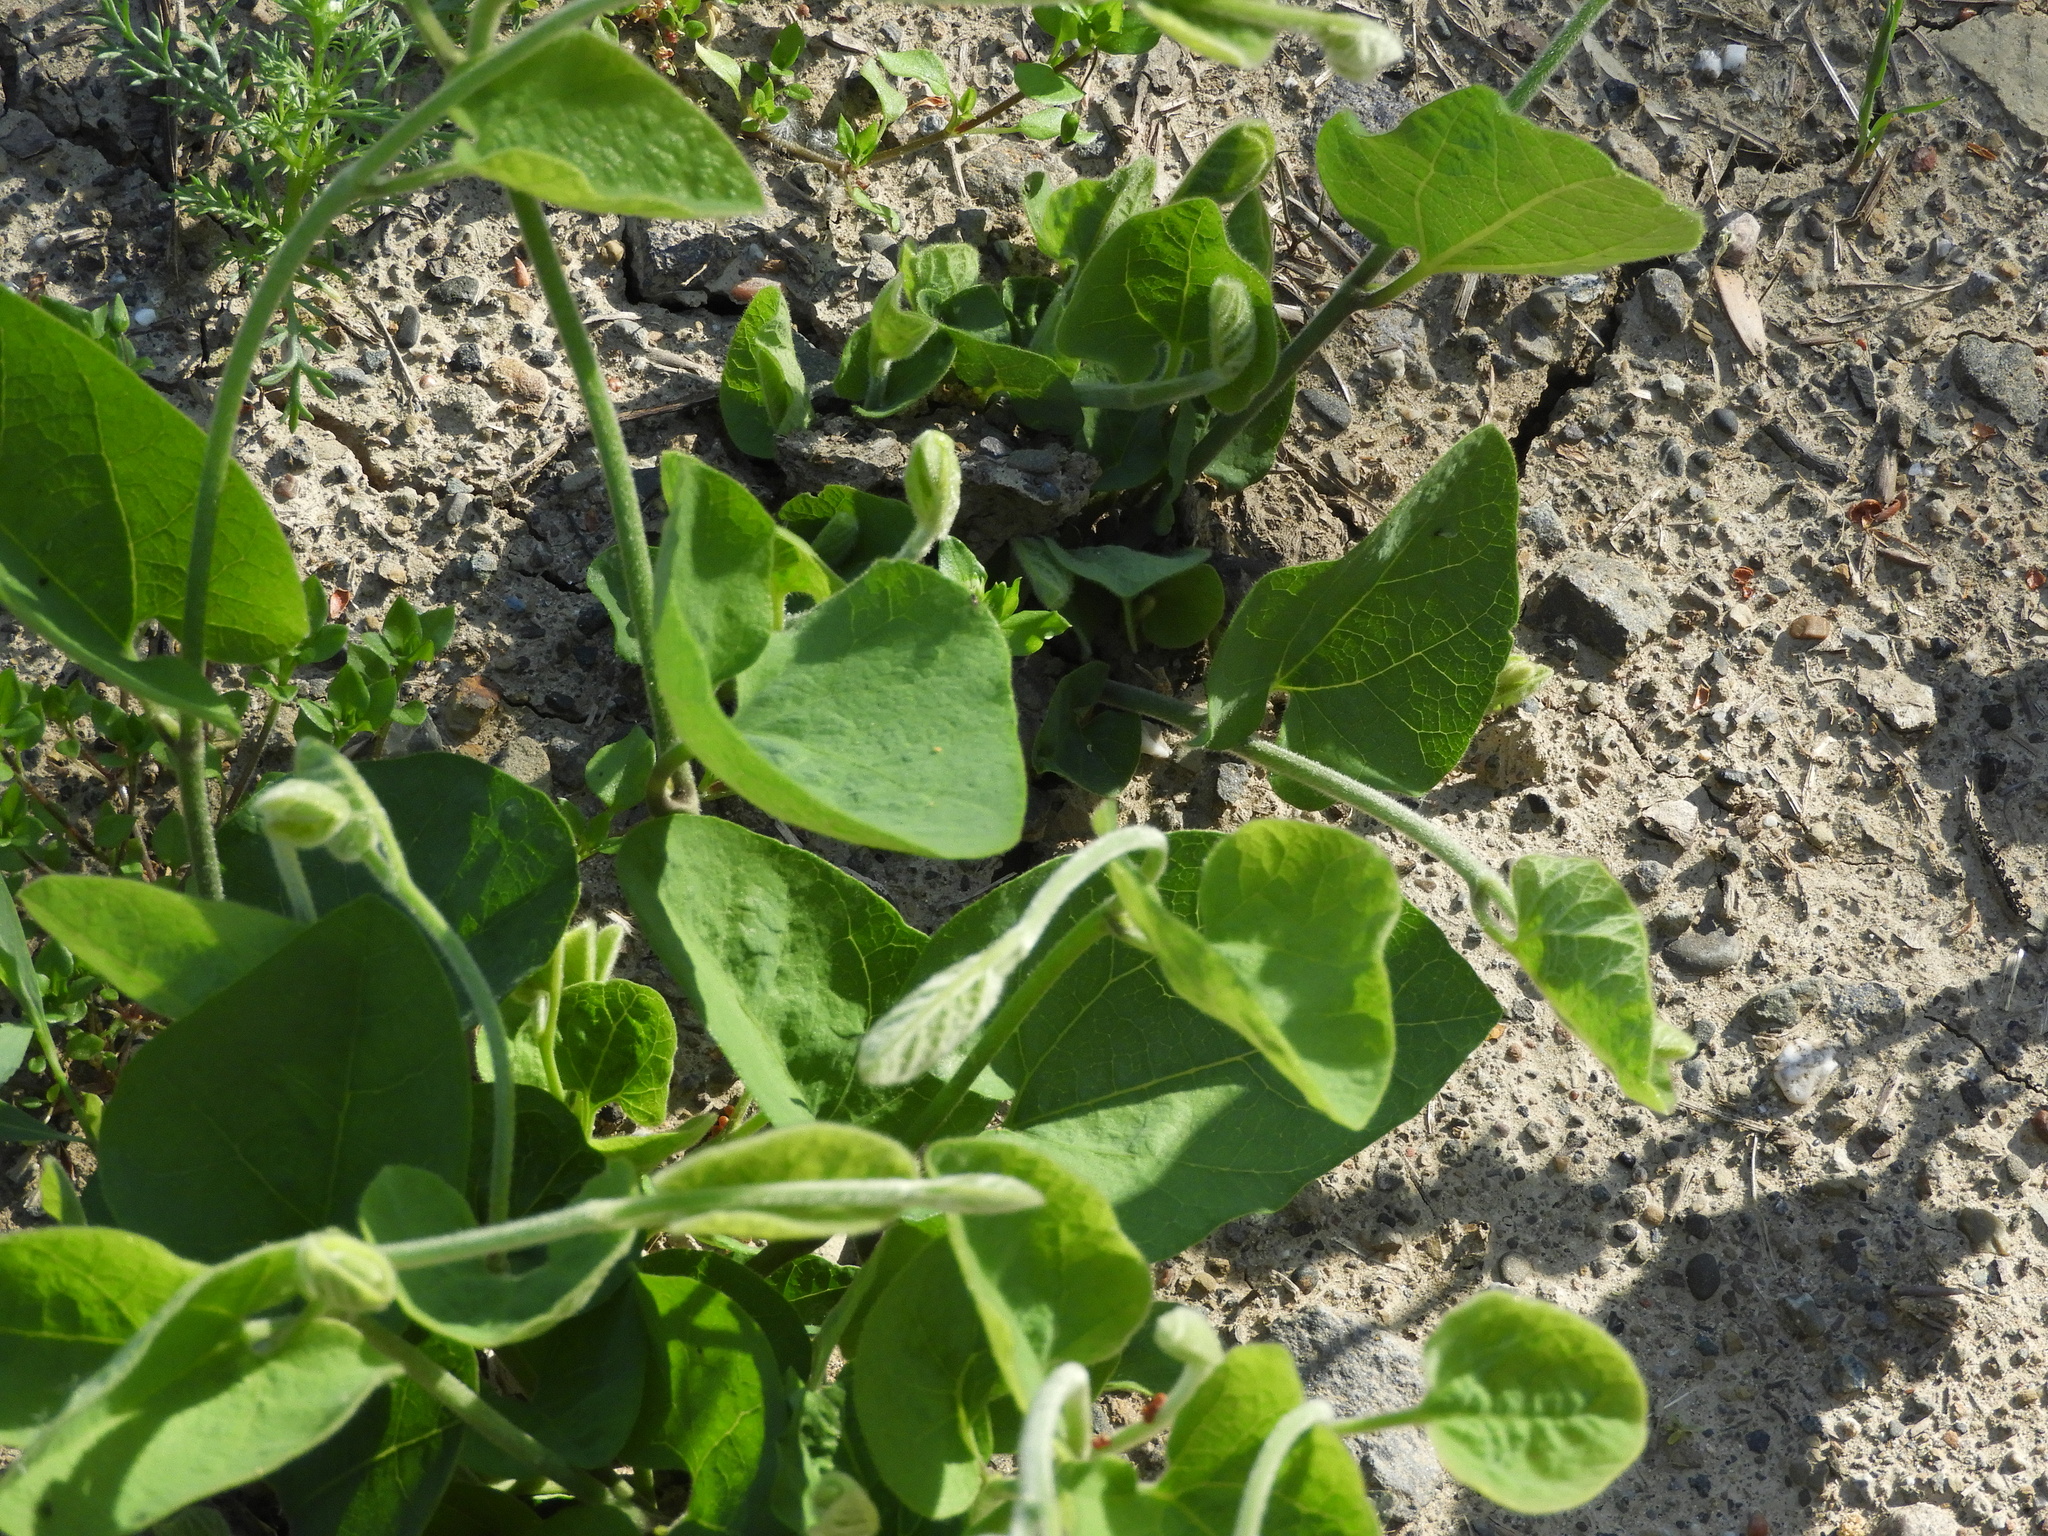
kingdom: Plantae
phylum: Tracheophyta
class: Magnoliopsida
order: Piperales
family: Aristolochiaceae
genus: Isotrema
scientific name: Isotrema californicum
